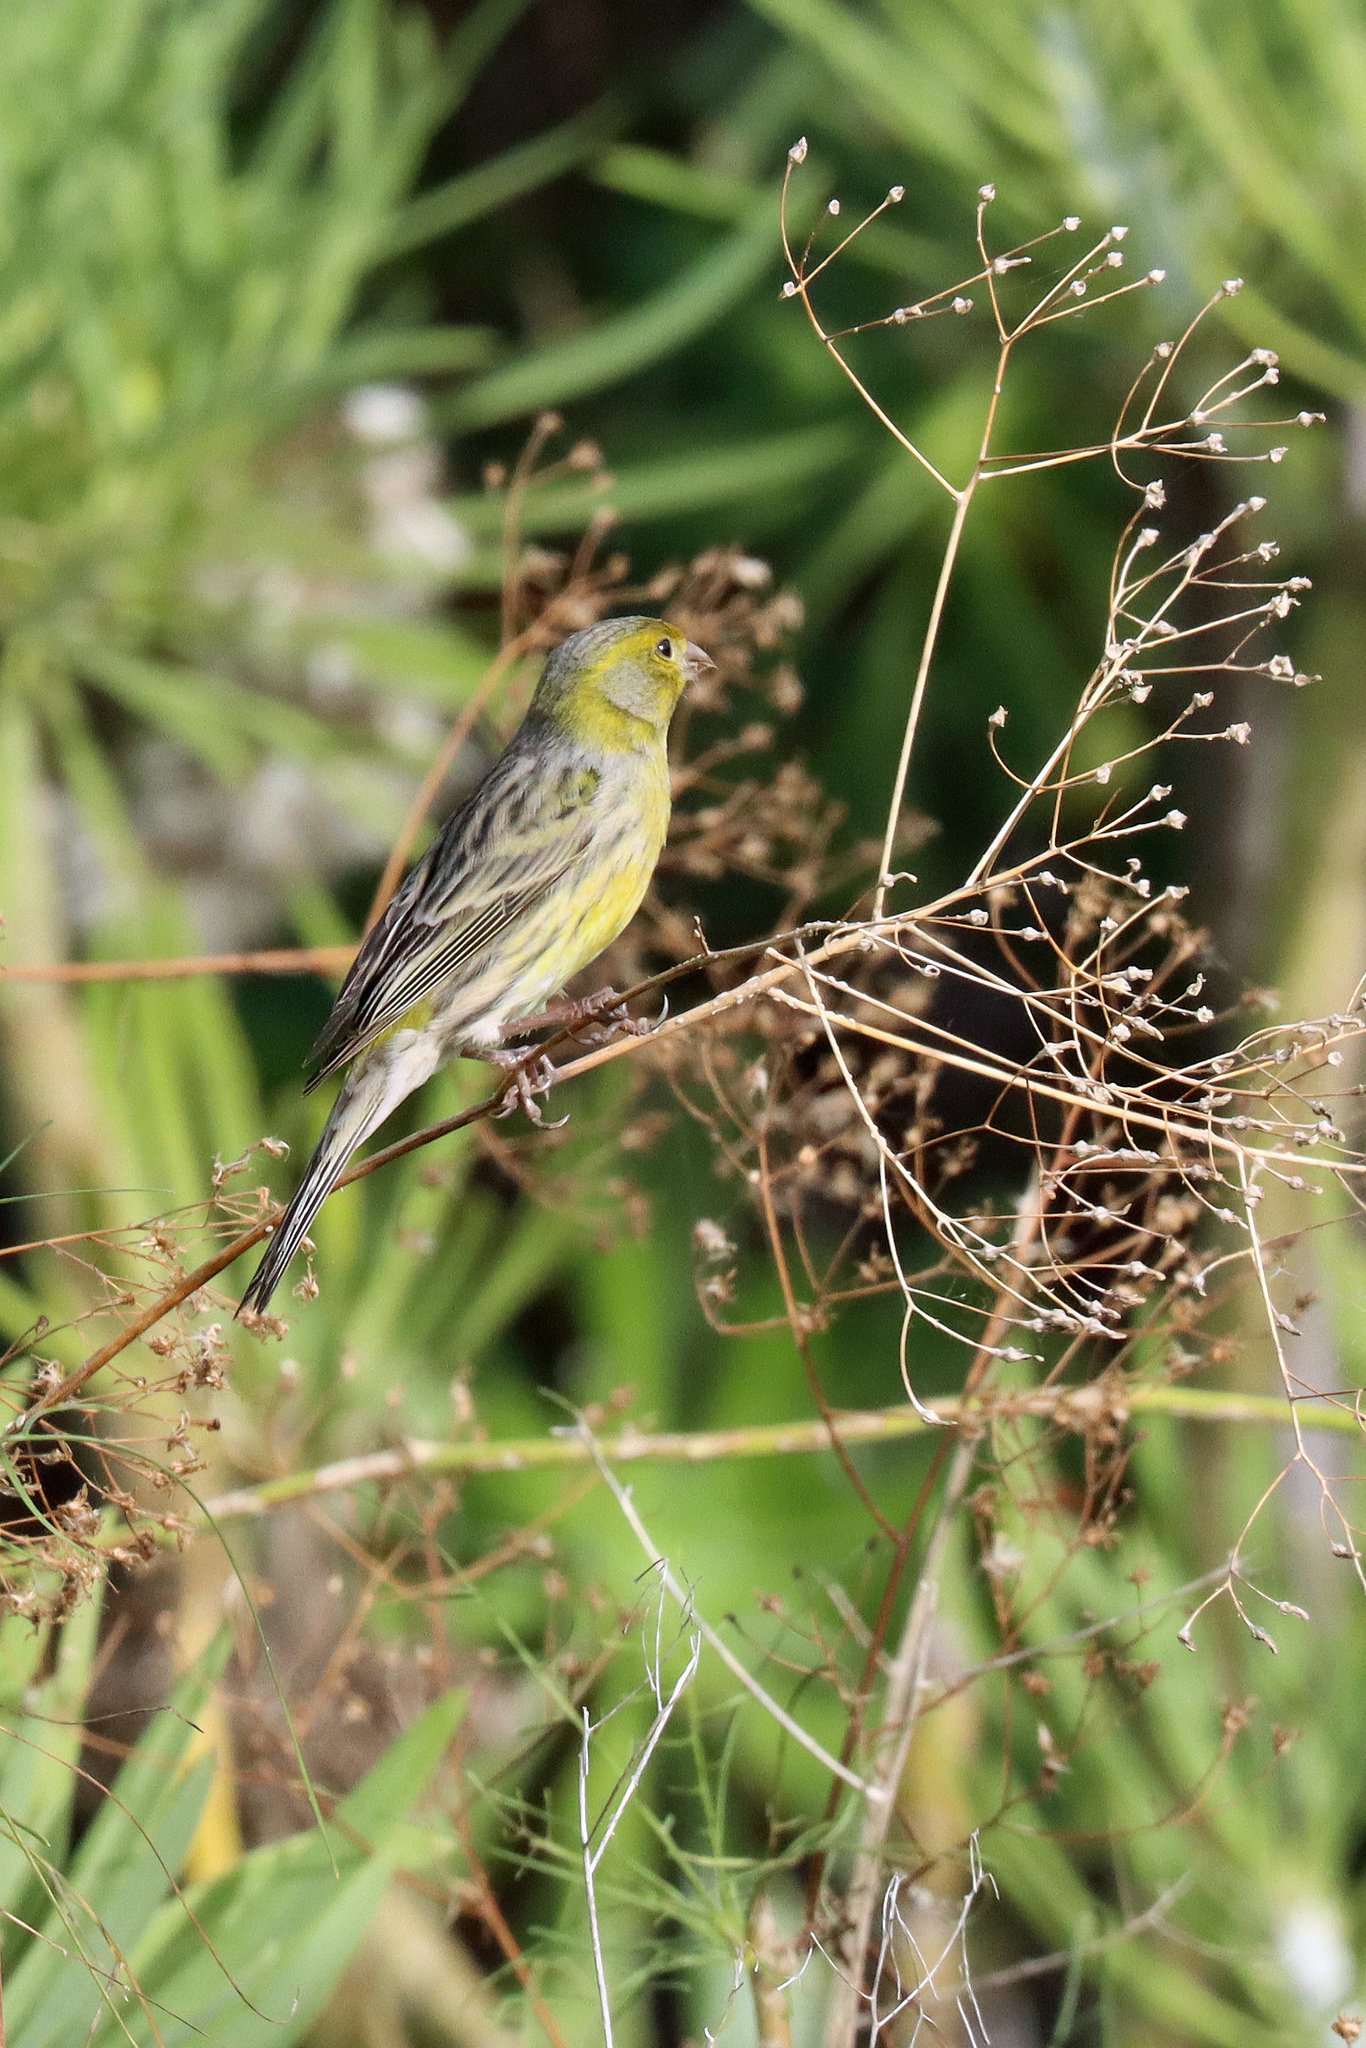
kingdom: Animalia
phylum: Chordata
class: Aves
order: Passeriformes
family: Fringillidae
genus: Serinus
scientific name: Serinus canaria
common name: Atlantic canary
